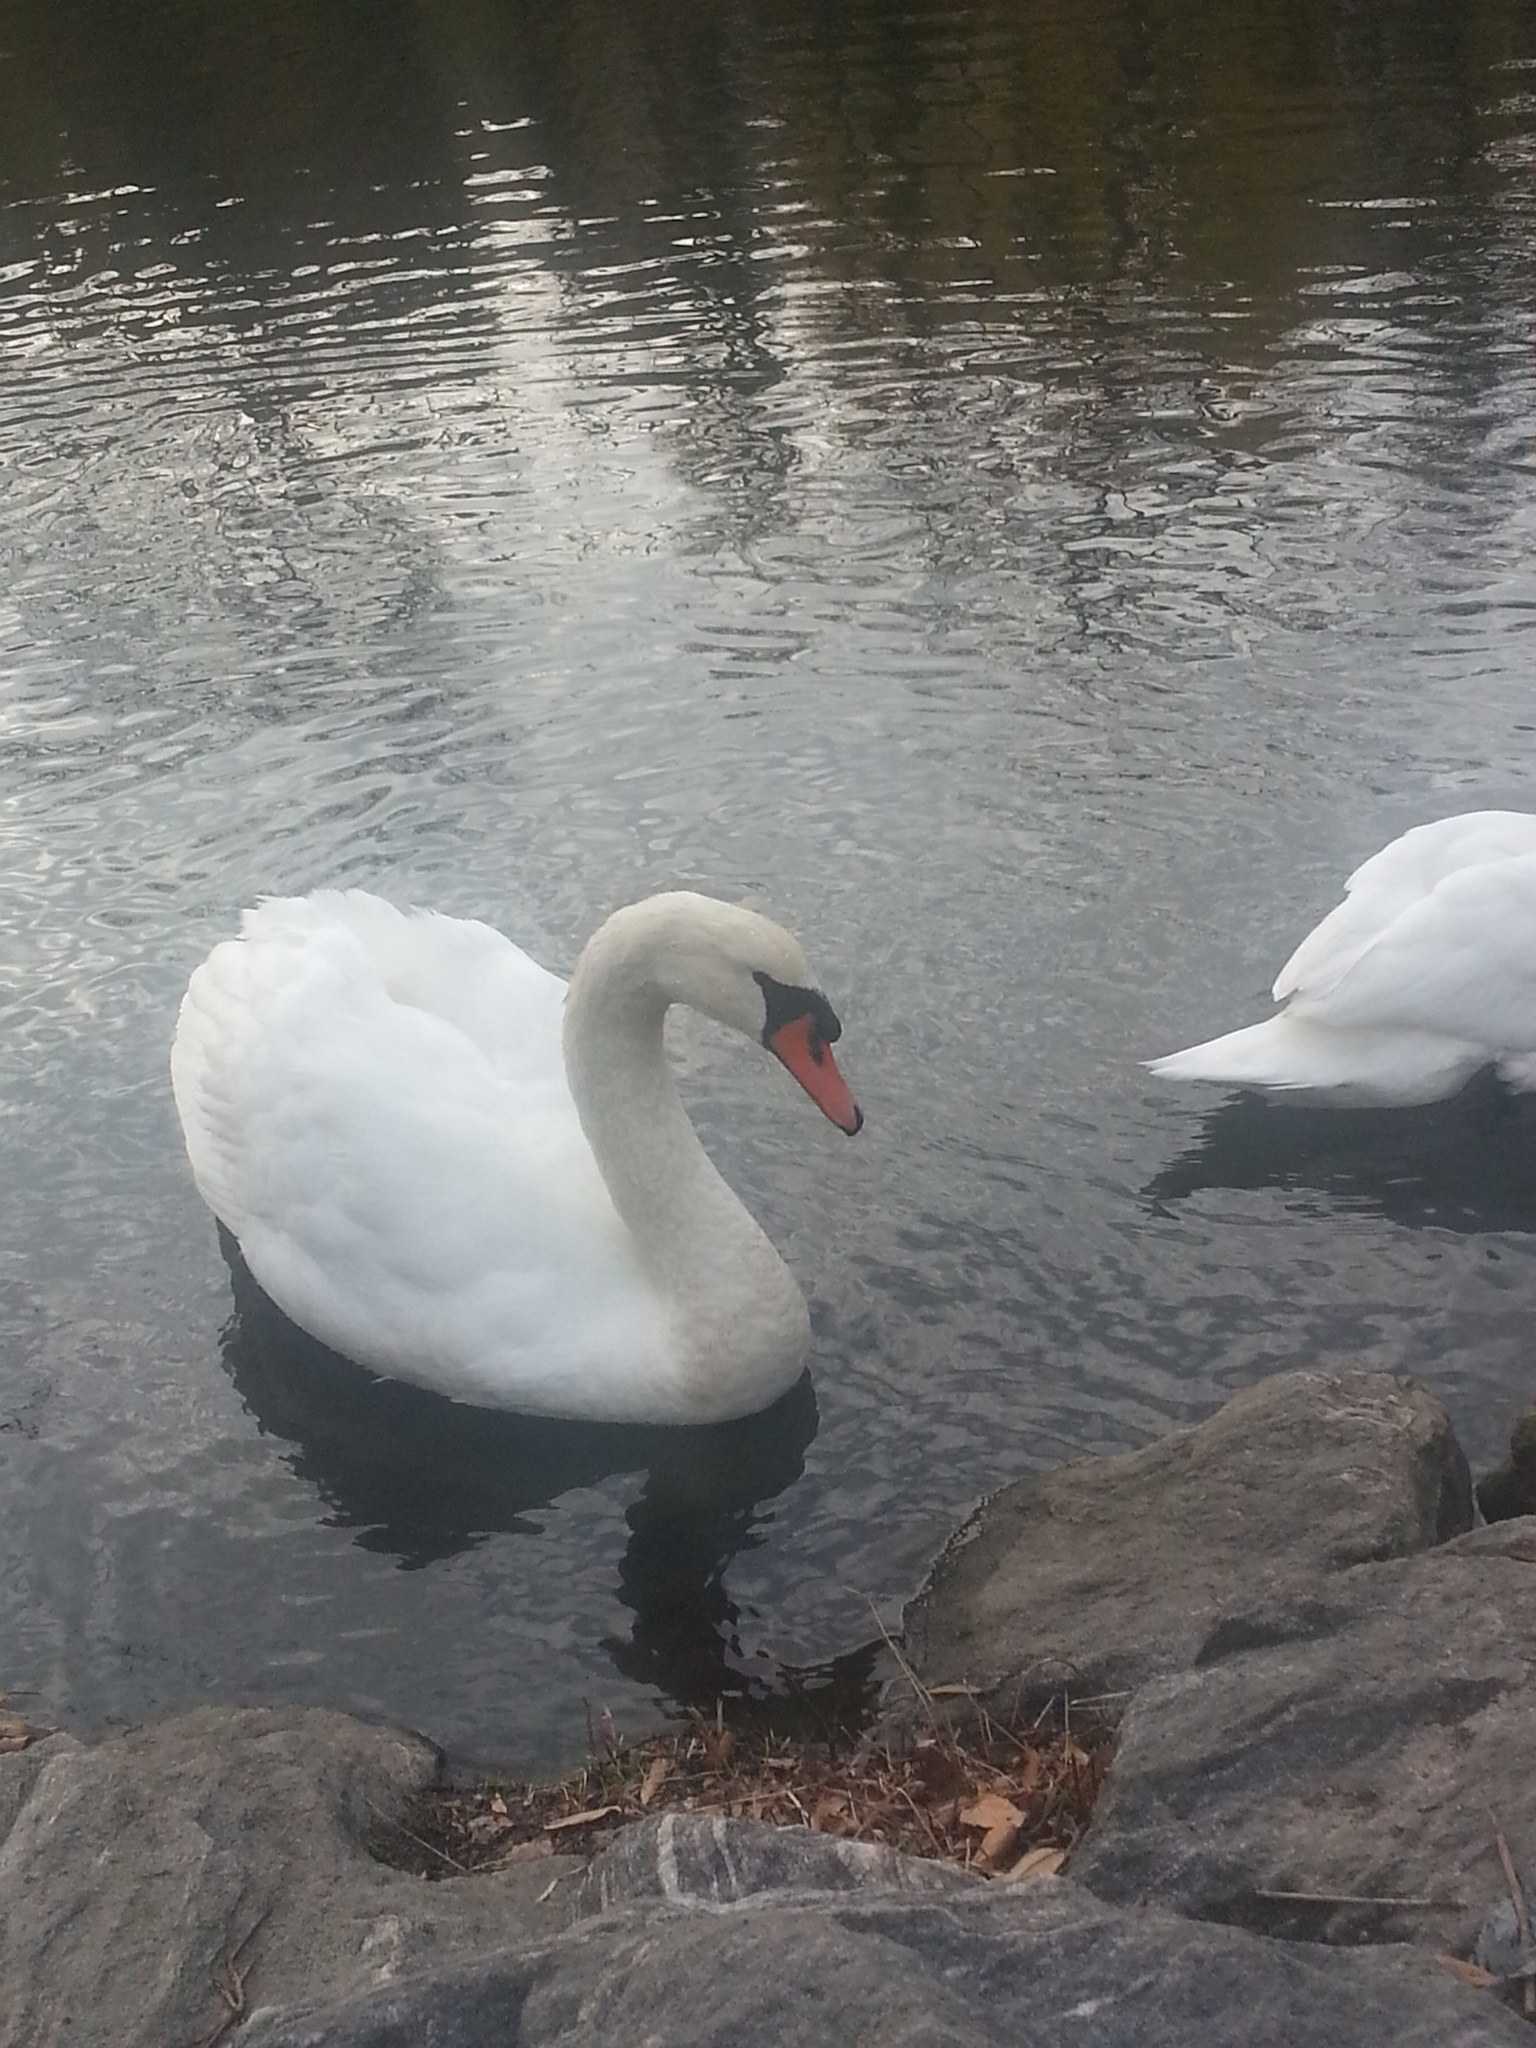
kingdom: Animalia
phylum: Chordata
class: Aves
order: Anseriformes
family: Anatidae
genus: Cygnus
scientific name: Cygnus olor
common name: Mute swan
